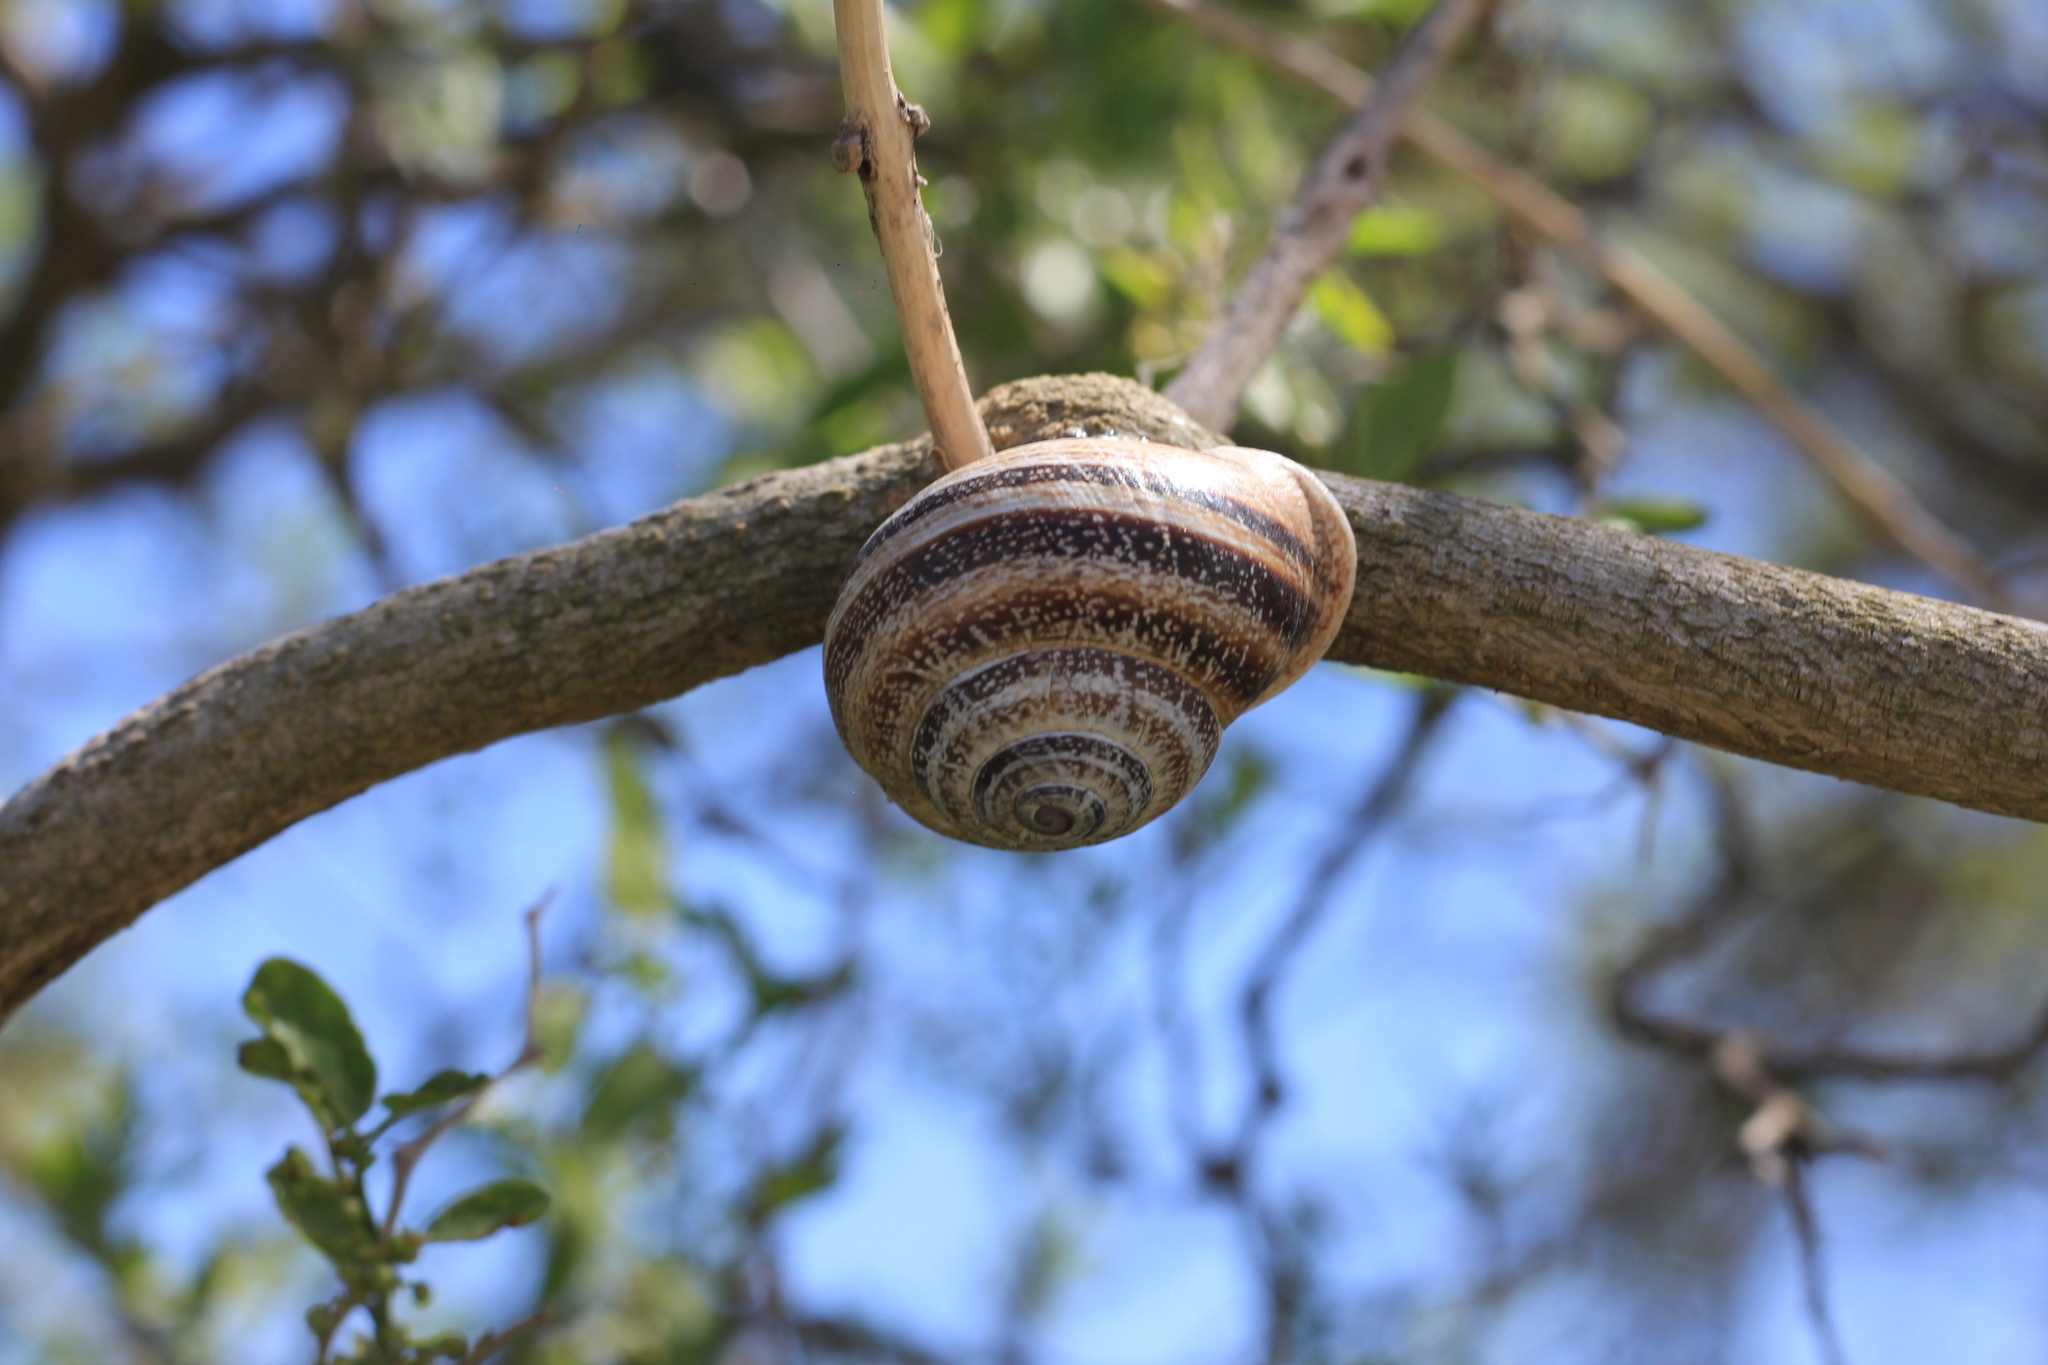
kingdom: Animalia
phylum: Mollusca
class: Gastropoda
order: Stylommatophora
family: Helicidae
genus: Otala
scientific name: Otala punctata
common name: Milk snail
